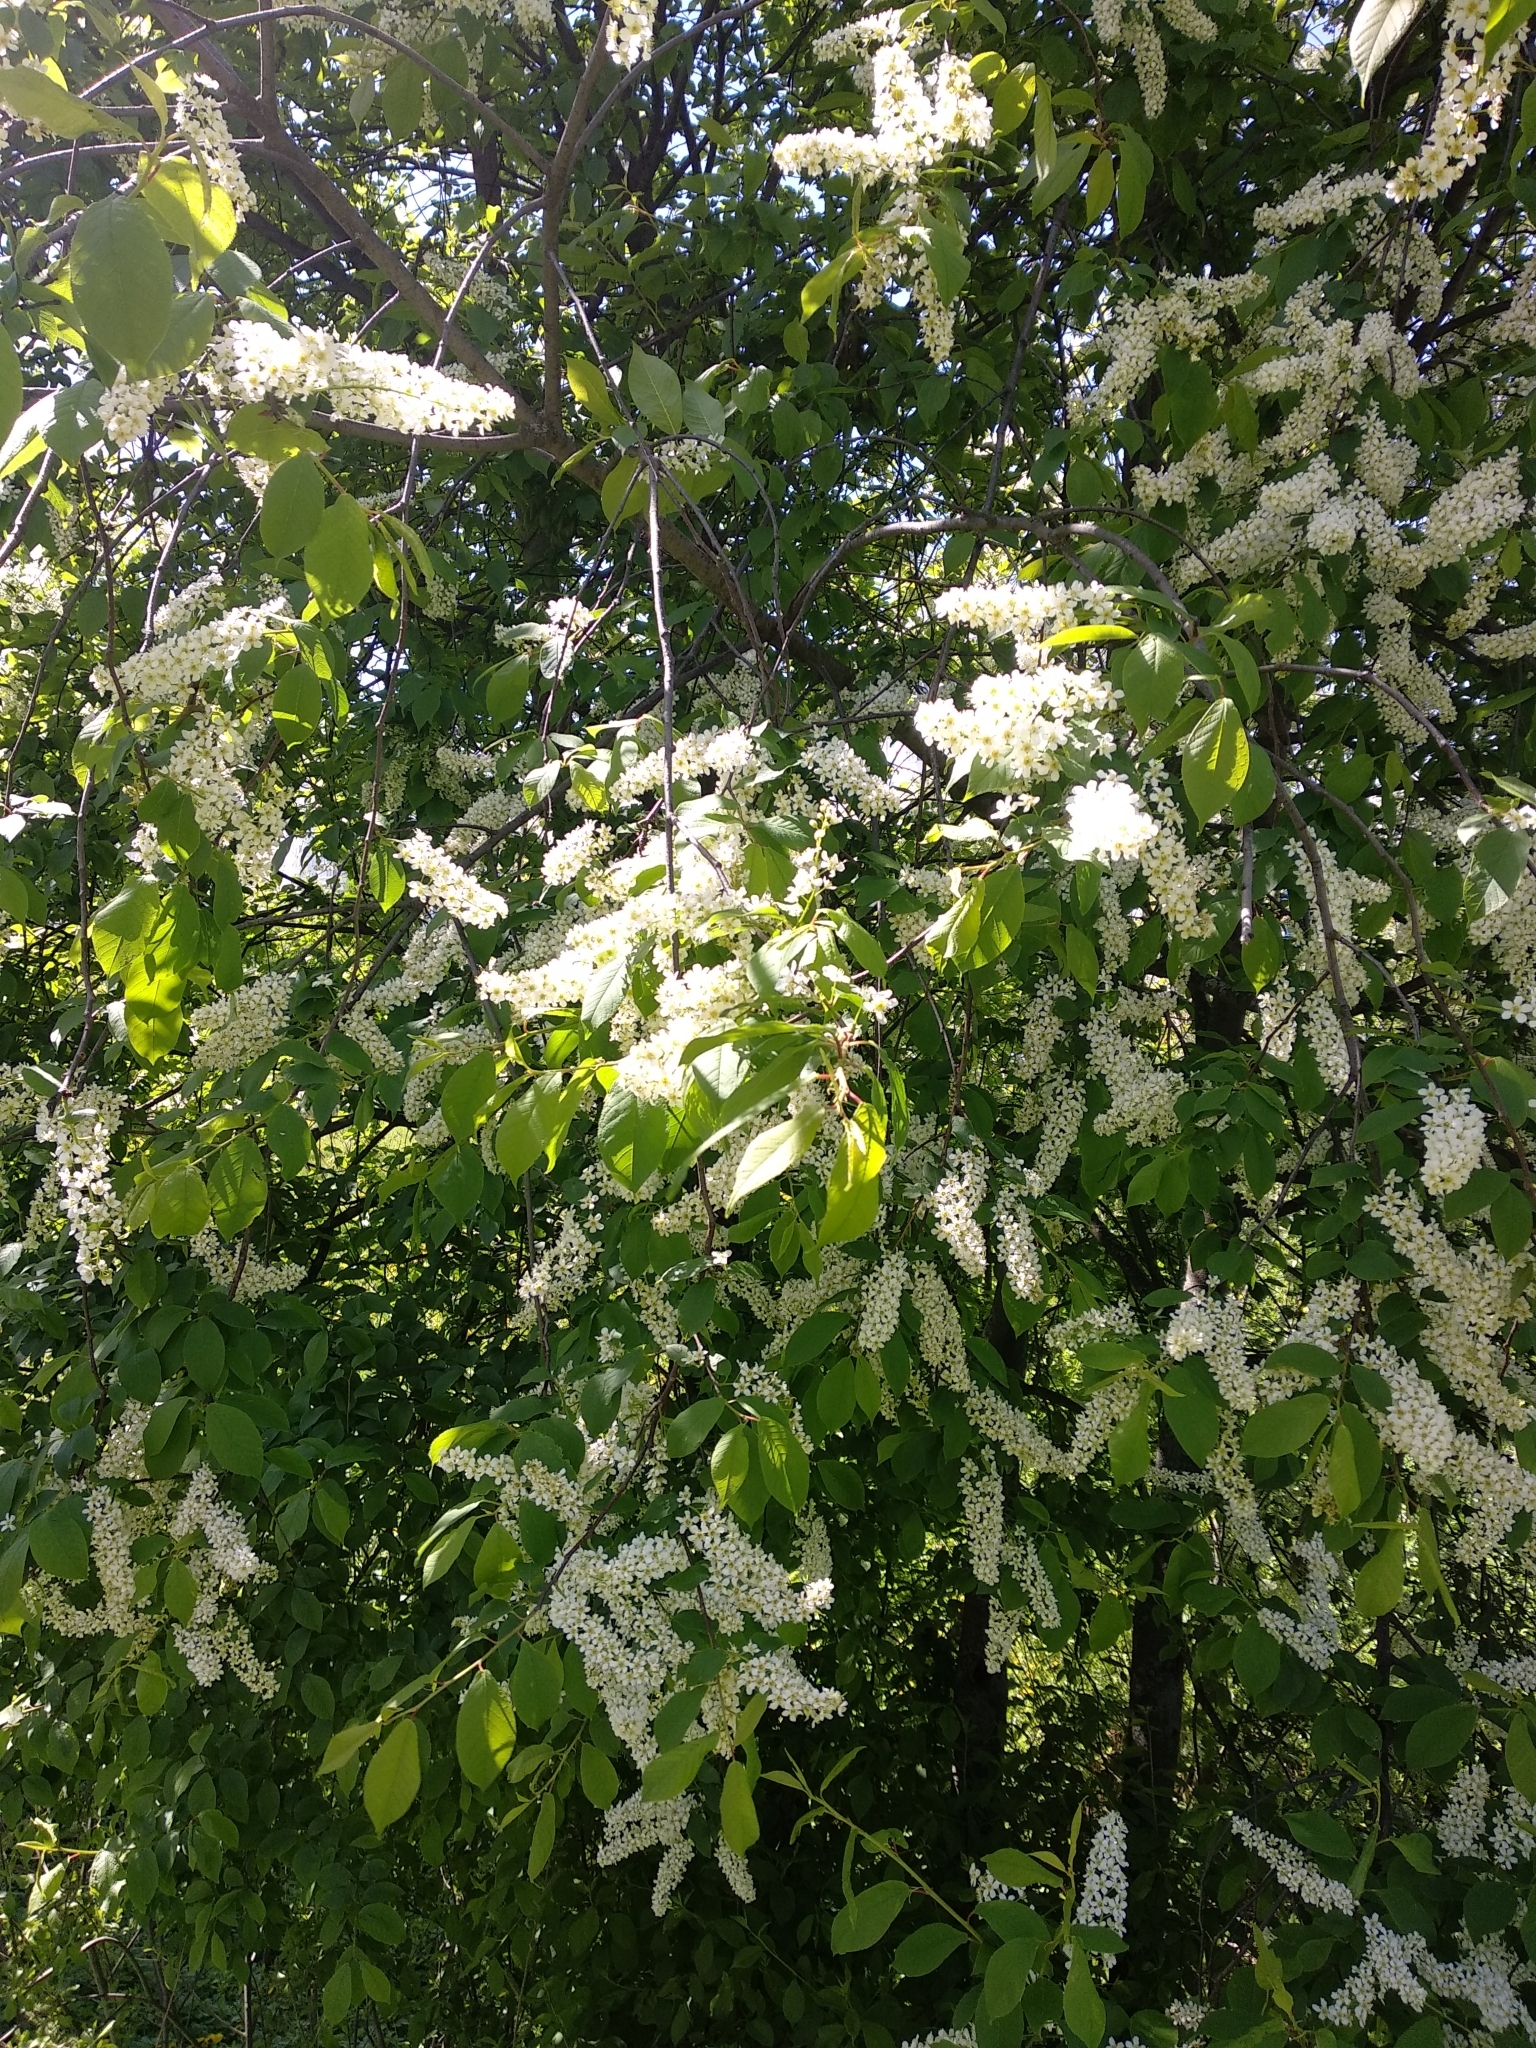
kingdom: Plantae
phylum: Tracheophyta
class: Magnoliopsida
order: Rosales
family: Rosaceae
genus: Prunus
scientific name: Prunus padus
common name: Bird cherry
